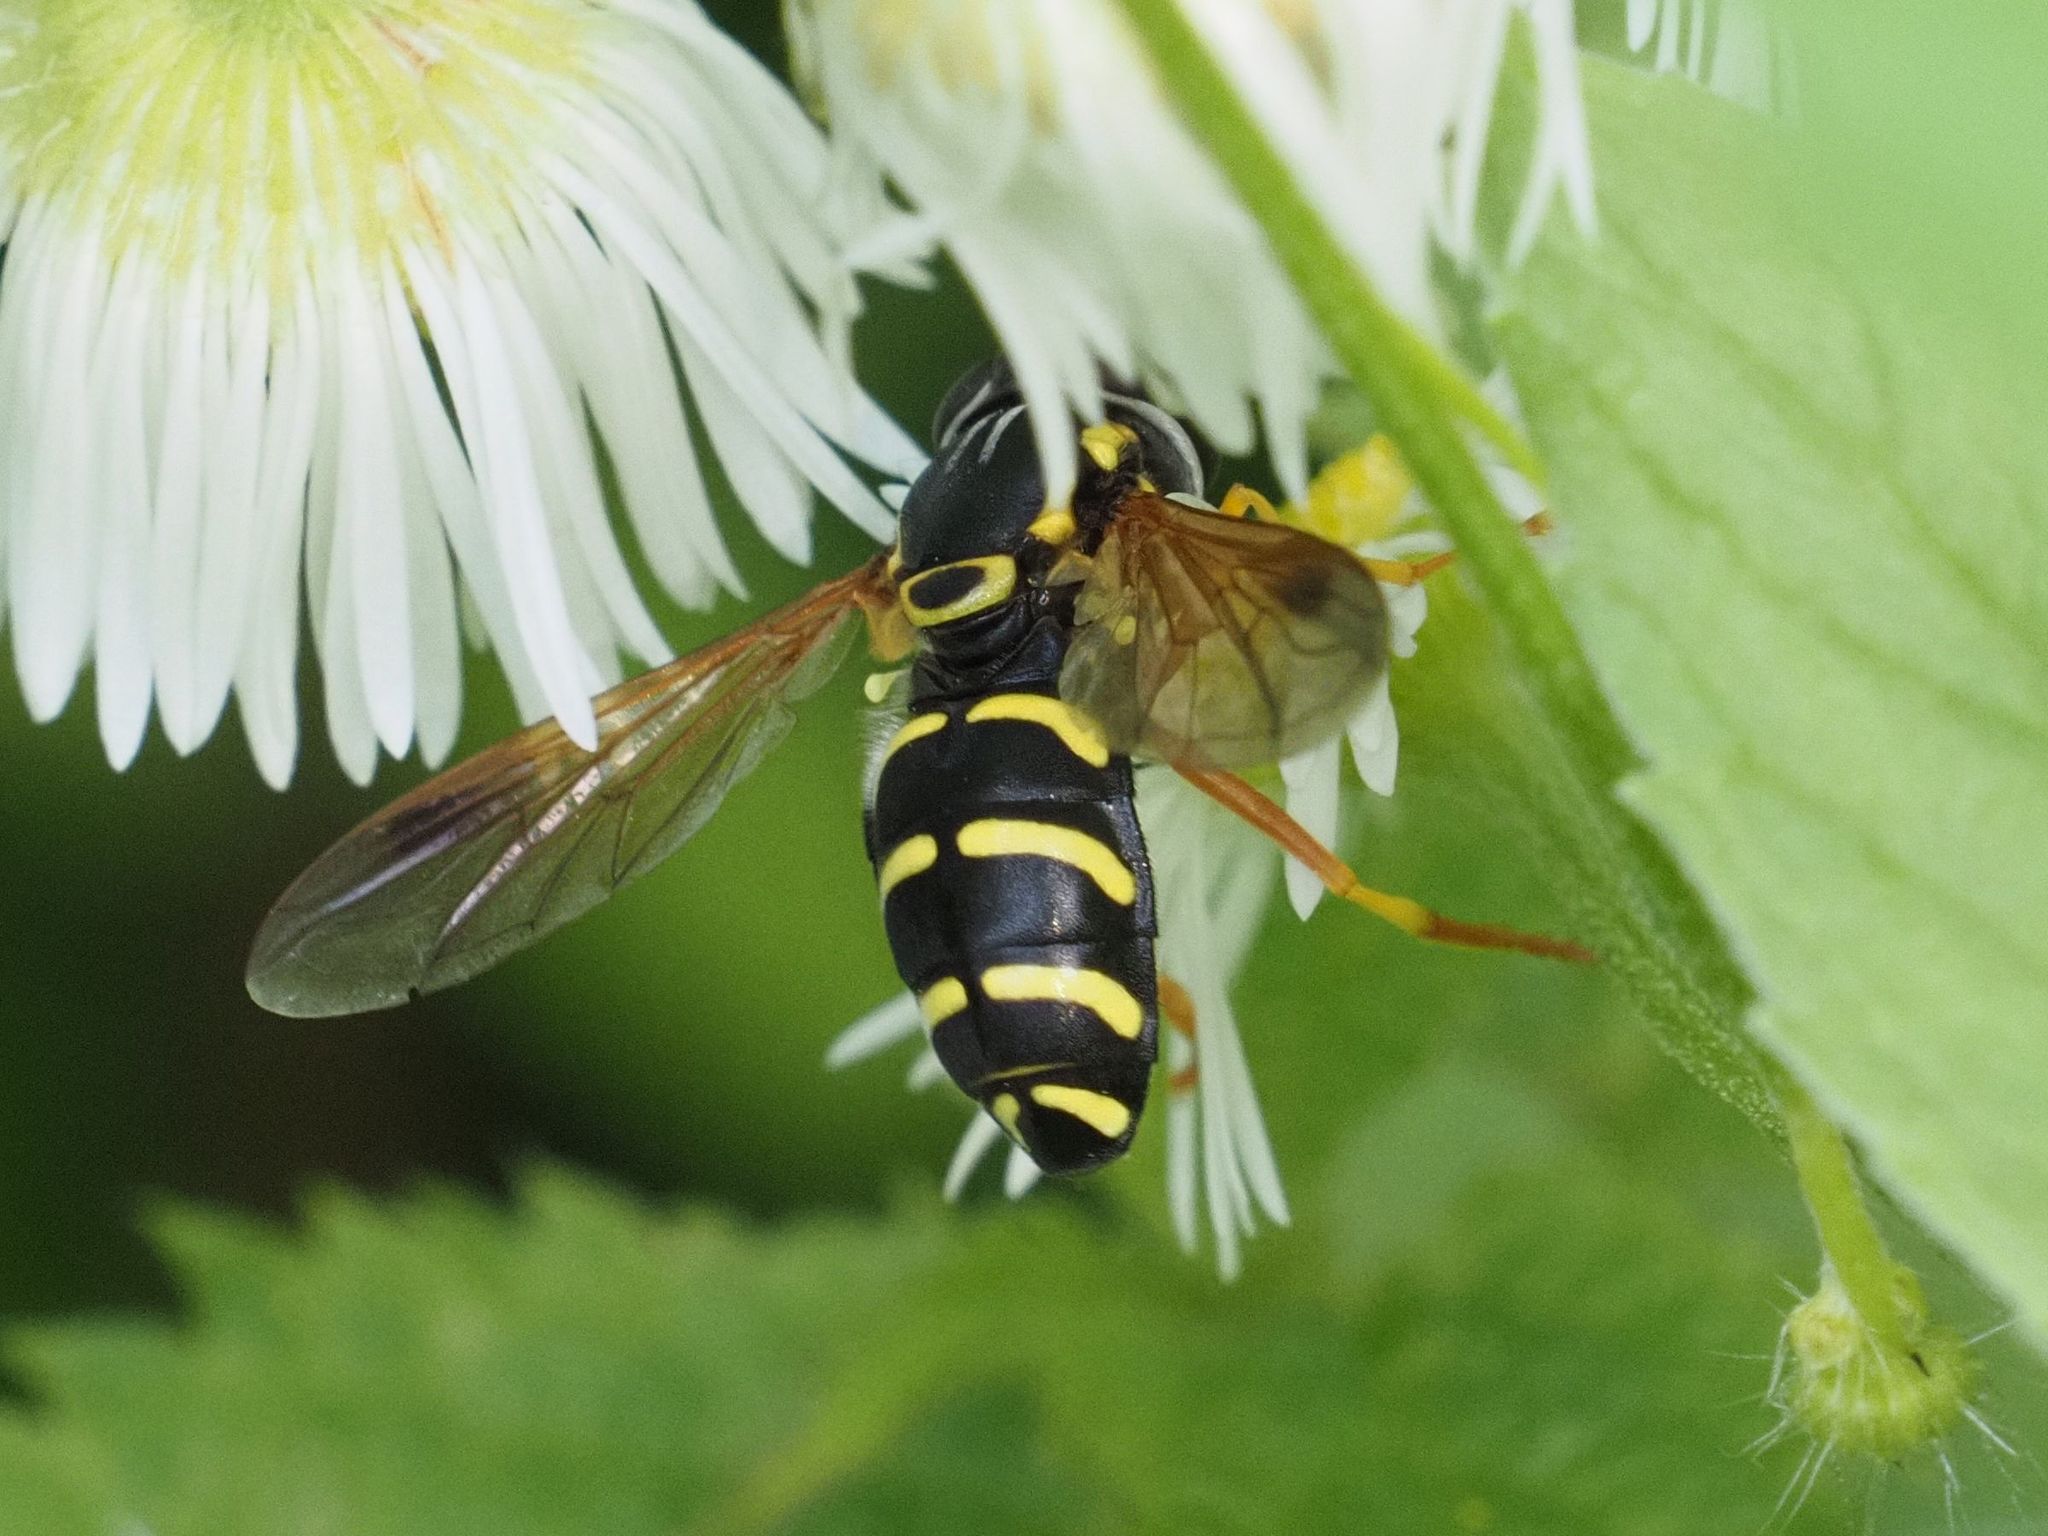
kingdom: Animalia
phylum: Arthropoda
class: Insecta
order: Diptera
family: Syrphidae
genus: Chrysotoxum
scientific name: Chrysotoxum festivum
